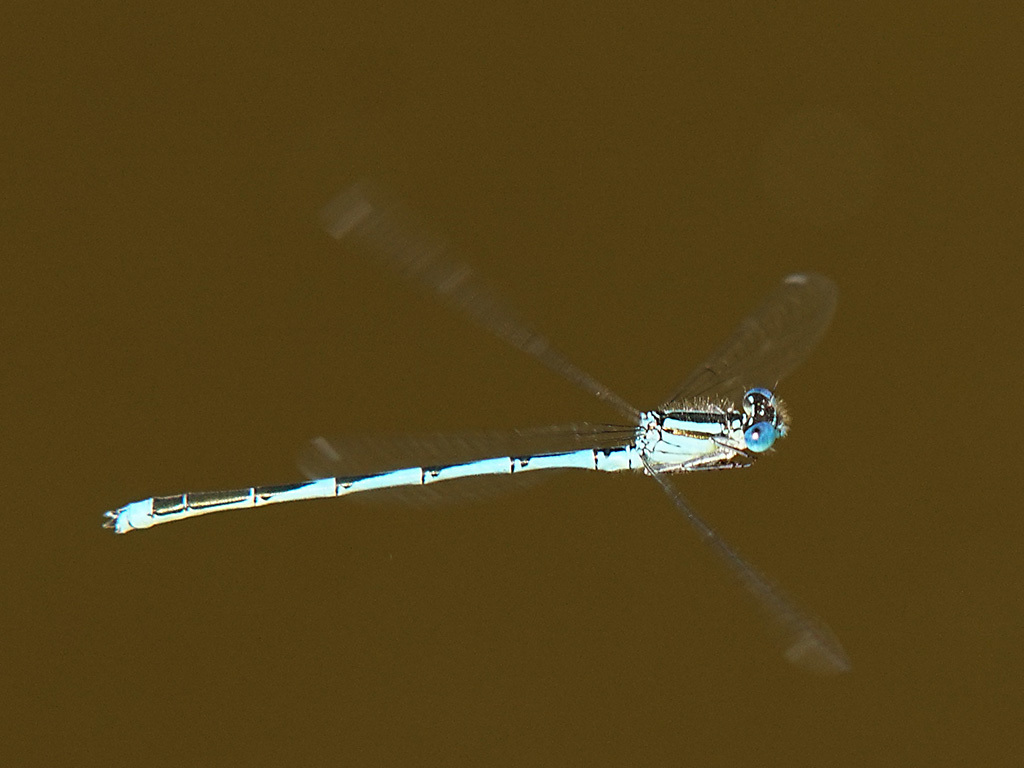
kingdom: Animalia
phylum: Arthropoda
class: Insecta
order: Odonata
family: Coenagrionidae
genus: Erythromma
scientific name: Erythromma lindenii
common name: Blue-eye
